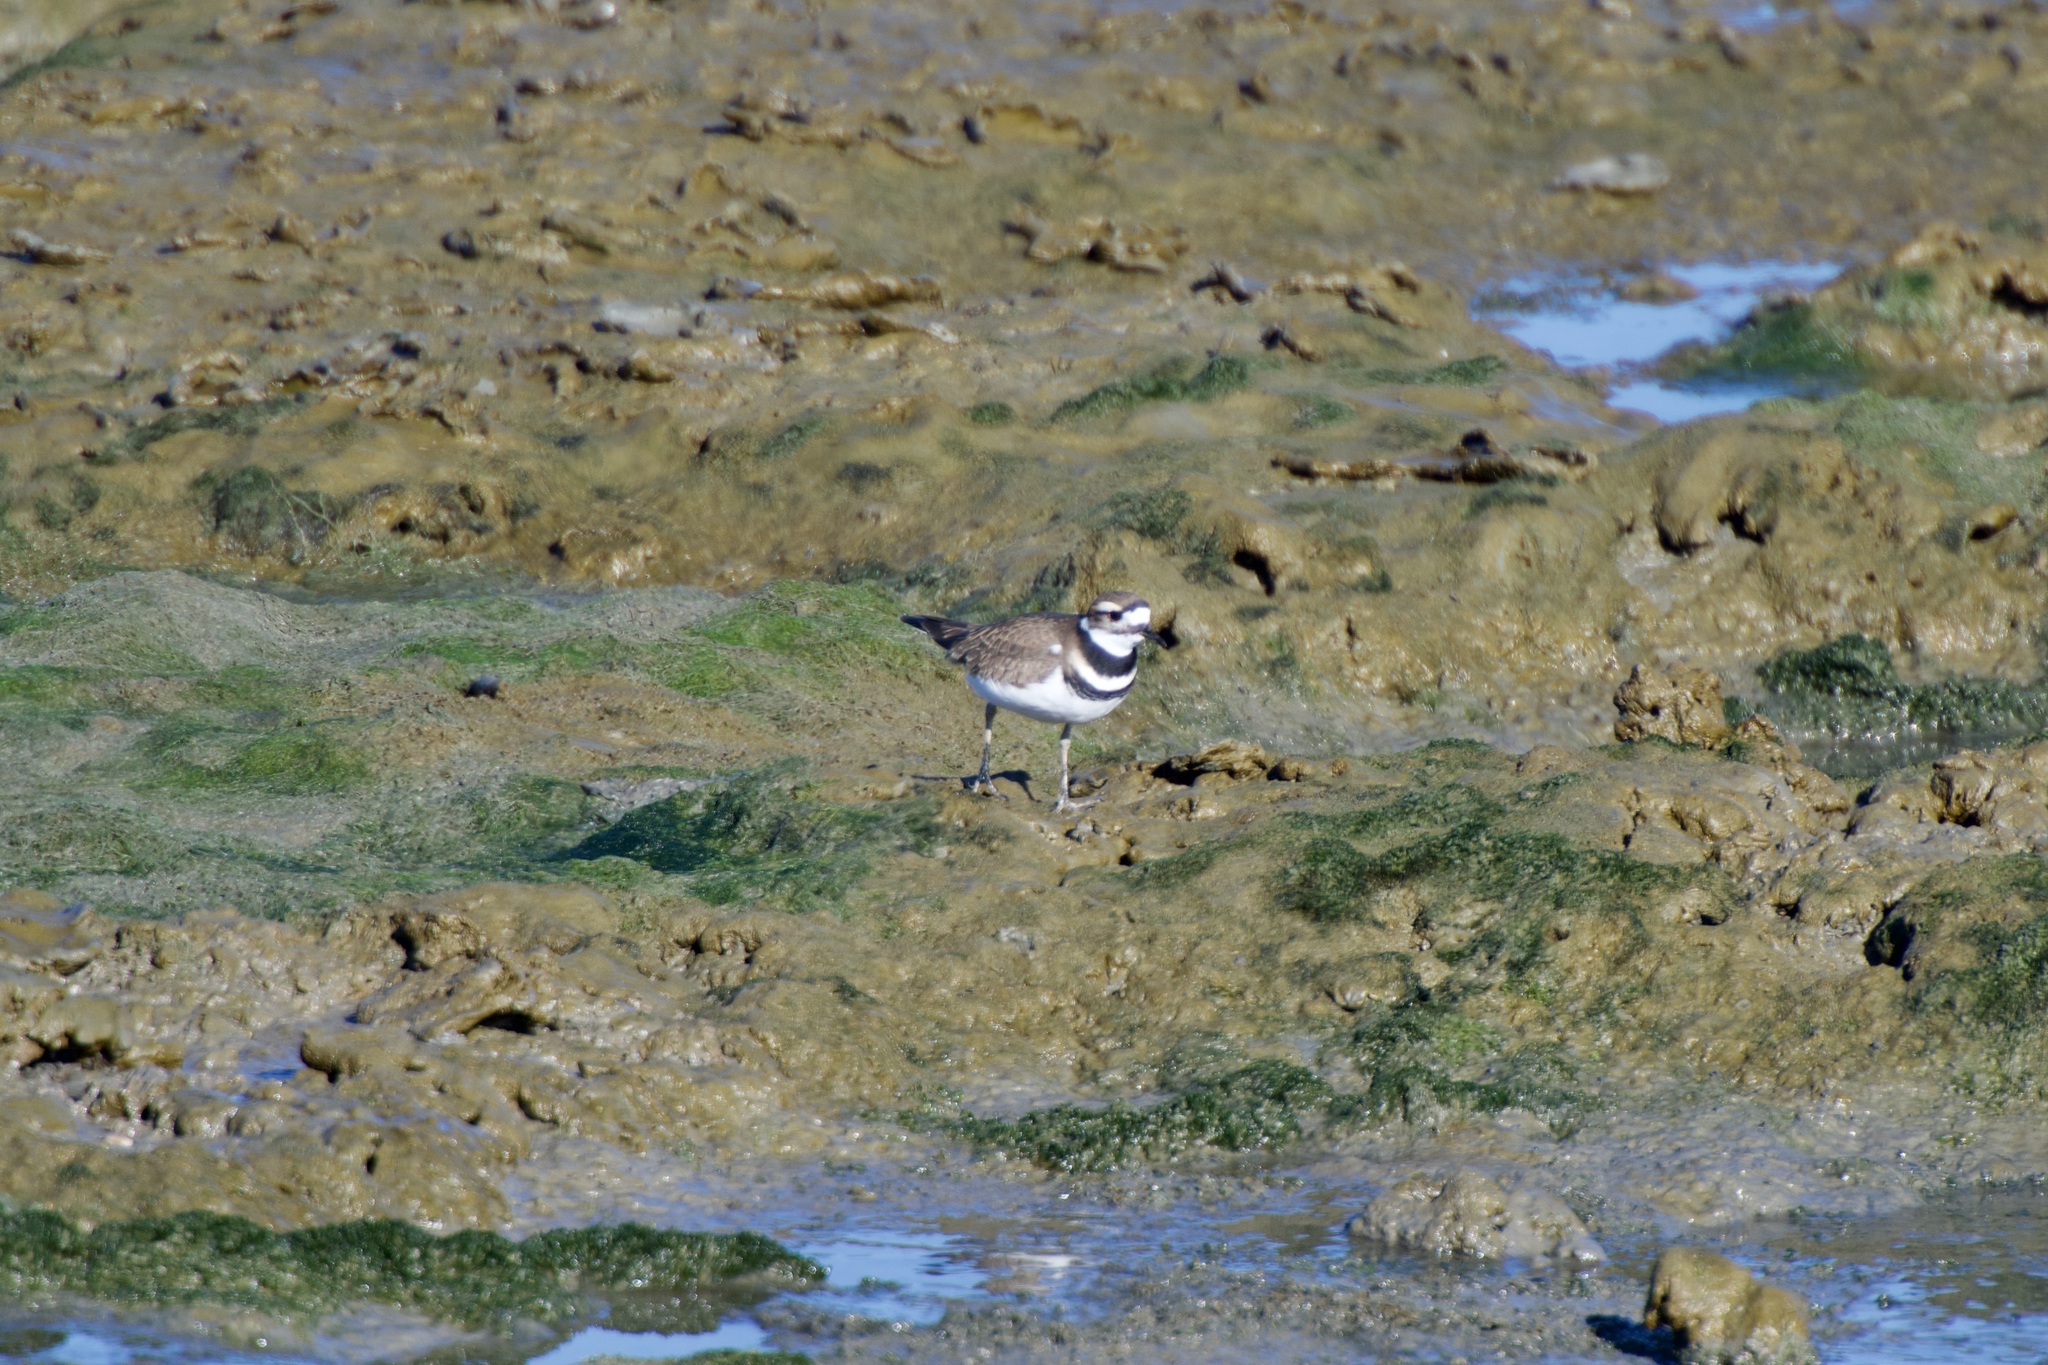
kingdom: Animalia
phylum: Chordata
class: Aves
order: Charadriiformes
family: Charadriidae
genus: Charadrius
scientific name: Charadrius vociferus
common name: Killdeer
